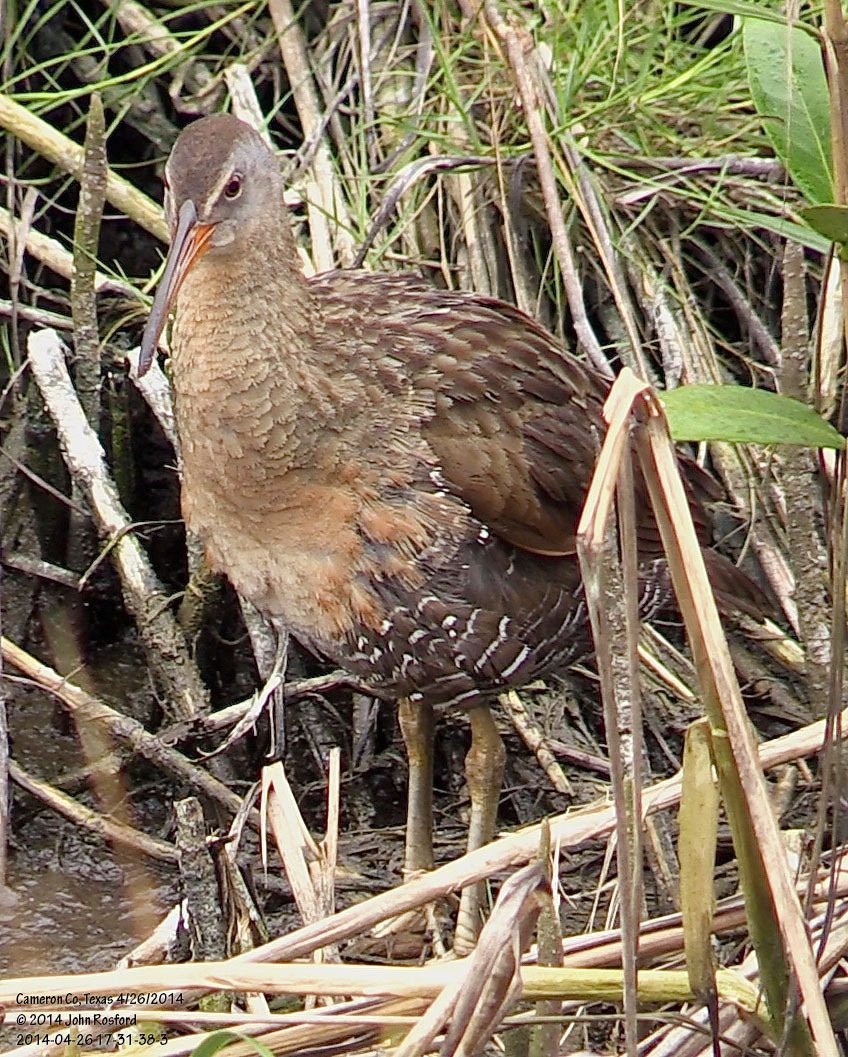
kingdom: Animalia
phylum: Chordata
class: Aves
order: Gruiformes
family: Rallidae
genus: Rallus
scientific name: Rallus crepitans
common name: Clapper rail
